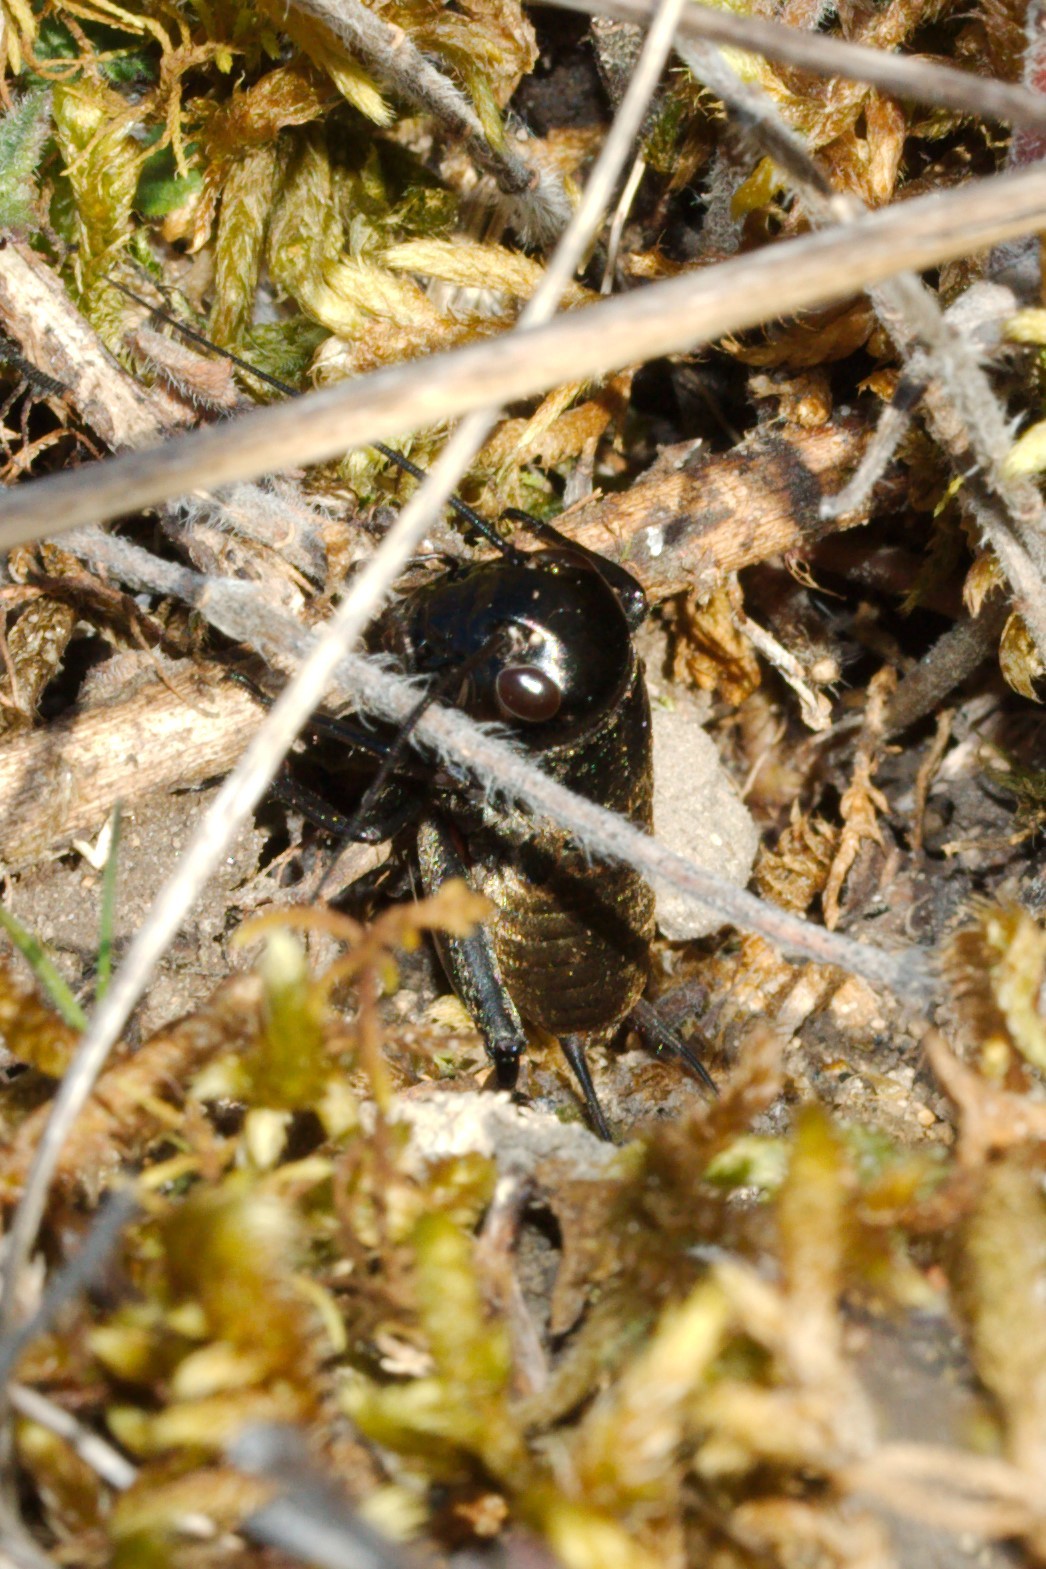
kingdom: Animalia
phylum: Arthropoda
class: Insecta
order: Orthoptera
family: Gryllidae
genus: Gryllus
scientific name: Gryllus campestris
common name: Field cricket
